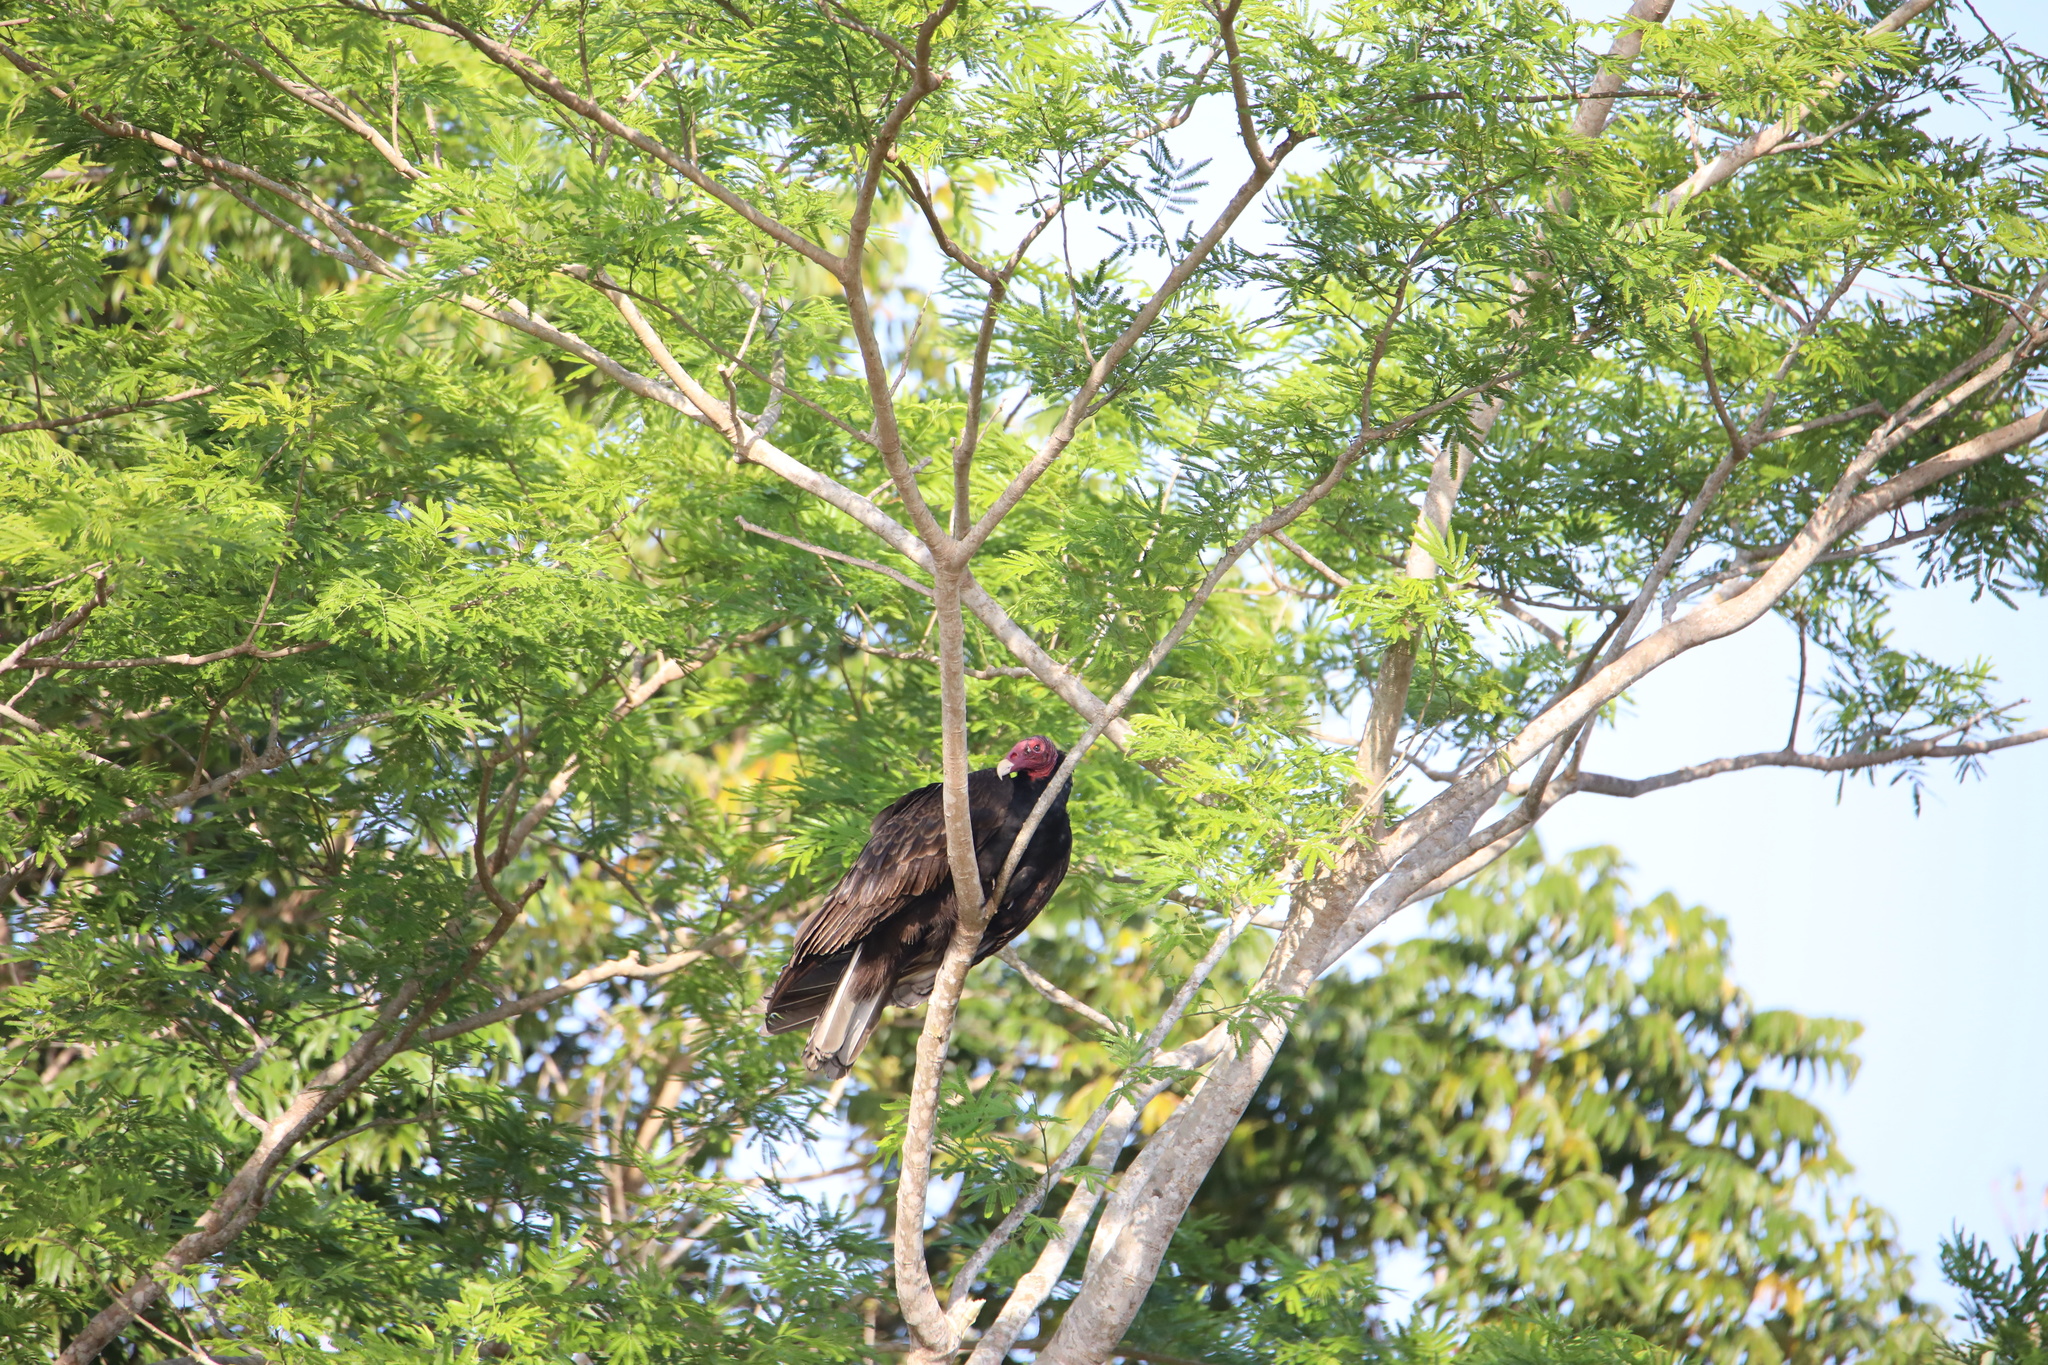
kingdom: Animalia
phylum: Chordata
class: Aves
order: Accipitriformes
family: Cathartidae
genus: Cathartes
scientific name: Cathartes aura
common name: Turkey vulture
